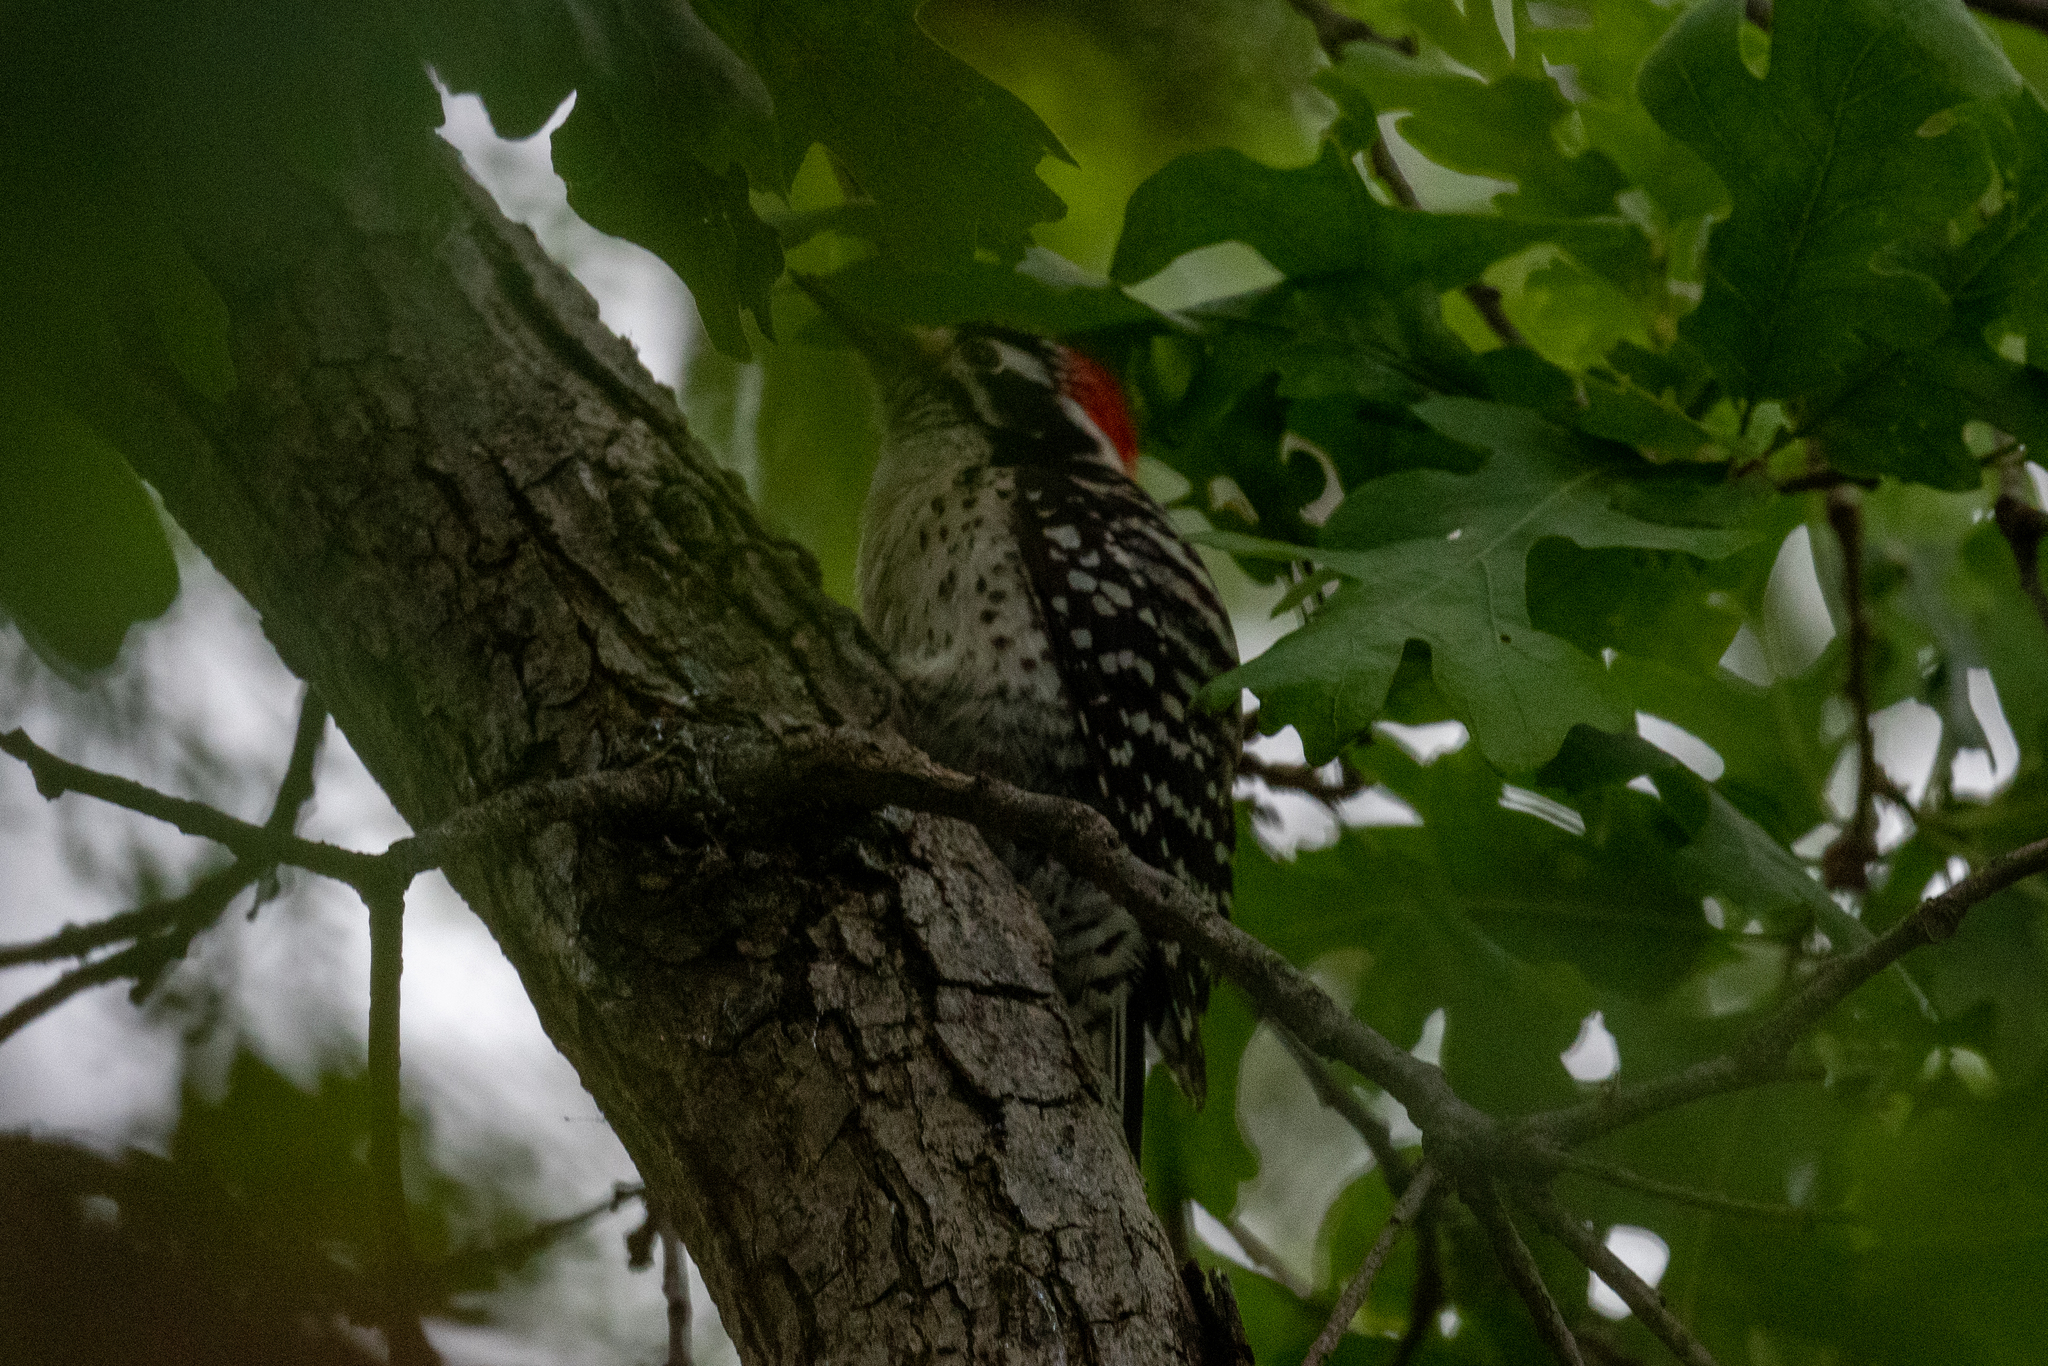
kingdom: Animalia
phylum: Chordata
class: Aves
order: Piciformes
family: Picidae
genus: Dryobates
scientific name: Dryobates nuttallii
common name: Nuttall's woodpecker
